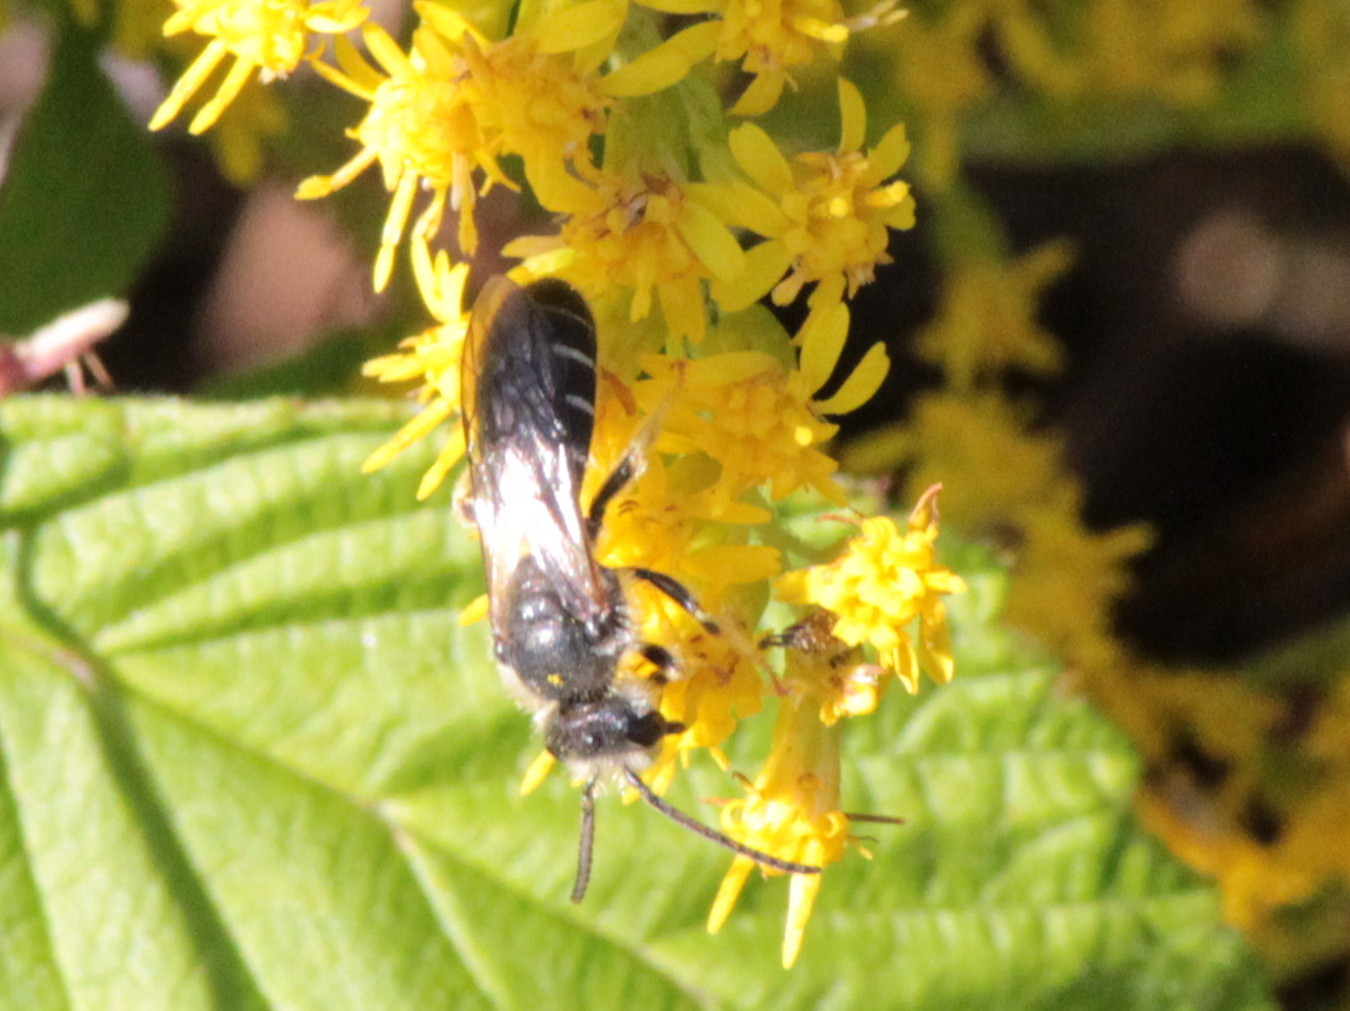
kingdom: Animalia
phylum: Arthropoda
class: Insecta
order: Hymenoptera
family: Halictidae
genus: Halictus
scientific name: Halictus rubicundus
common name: Orange-legged furrow bee
